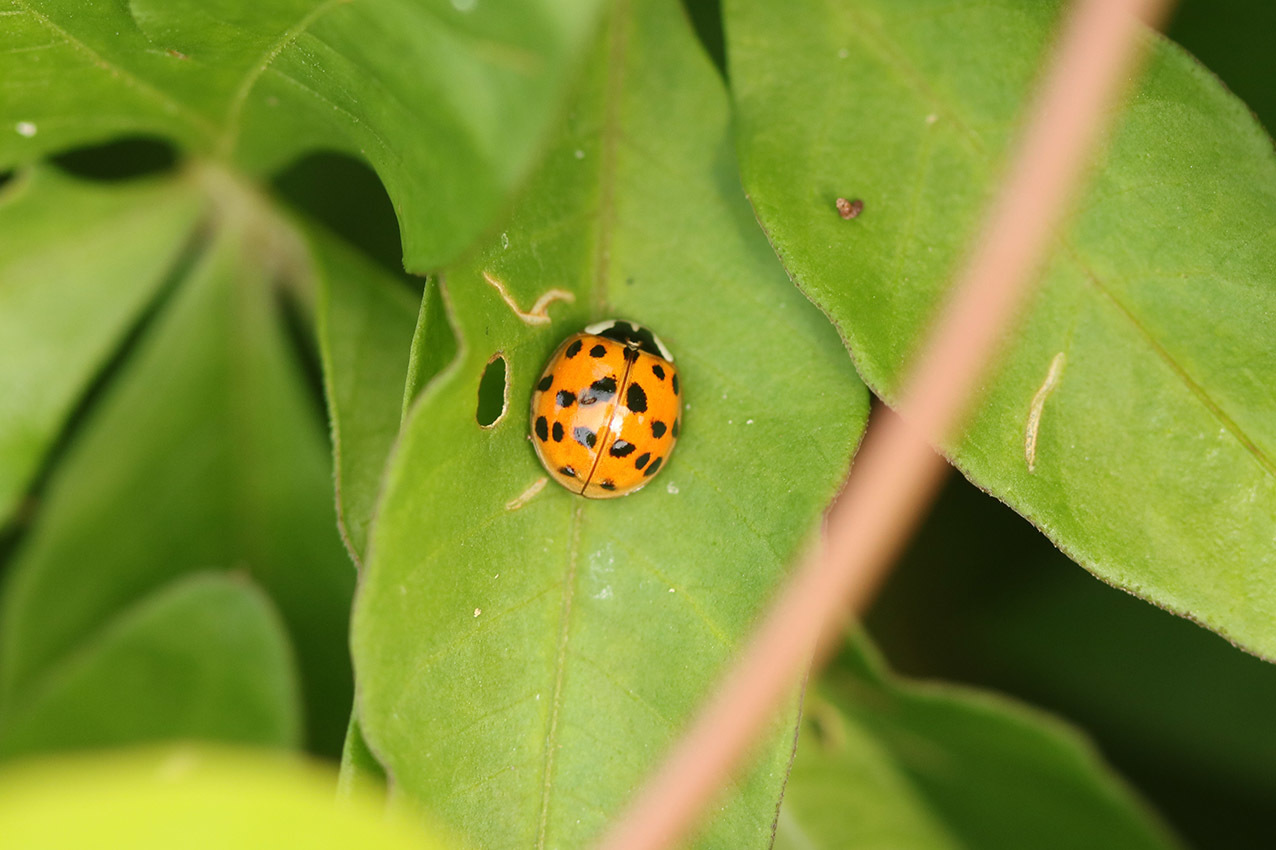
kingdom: Animalia
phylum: Arthropoda
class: Insecta
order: Coleoptera
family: Coccinellidae
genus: Harmonia
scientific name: Harmonia axyridis
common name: Harlequin ladybird
